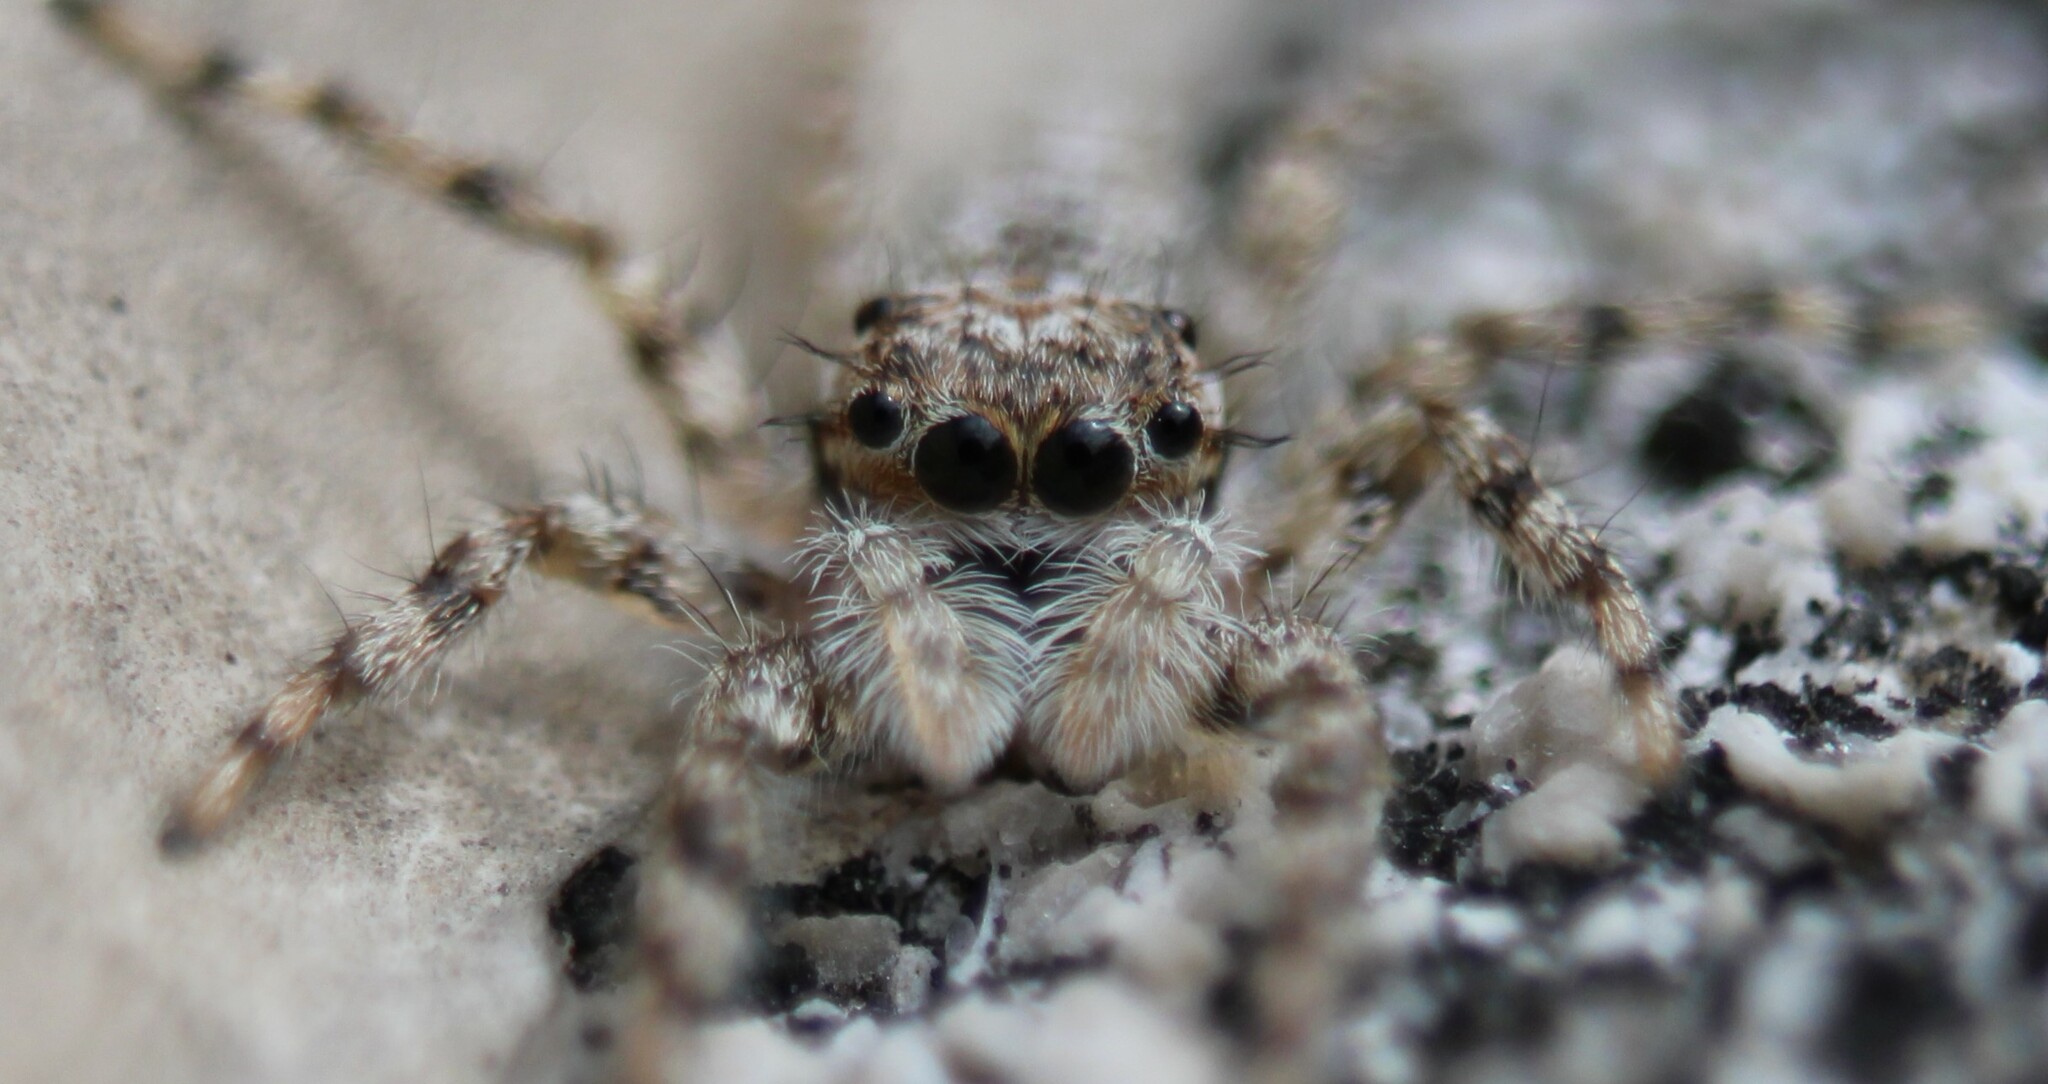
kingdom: Animalia
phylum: Arthropoda
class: Arachnida
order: Araneae
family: Salticidae
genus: Platycryptus
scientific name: Platycryptus undatus
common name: Tan jumping spider
